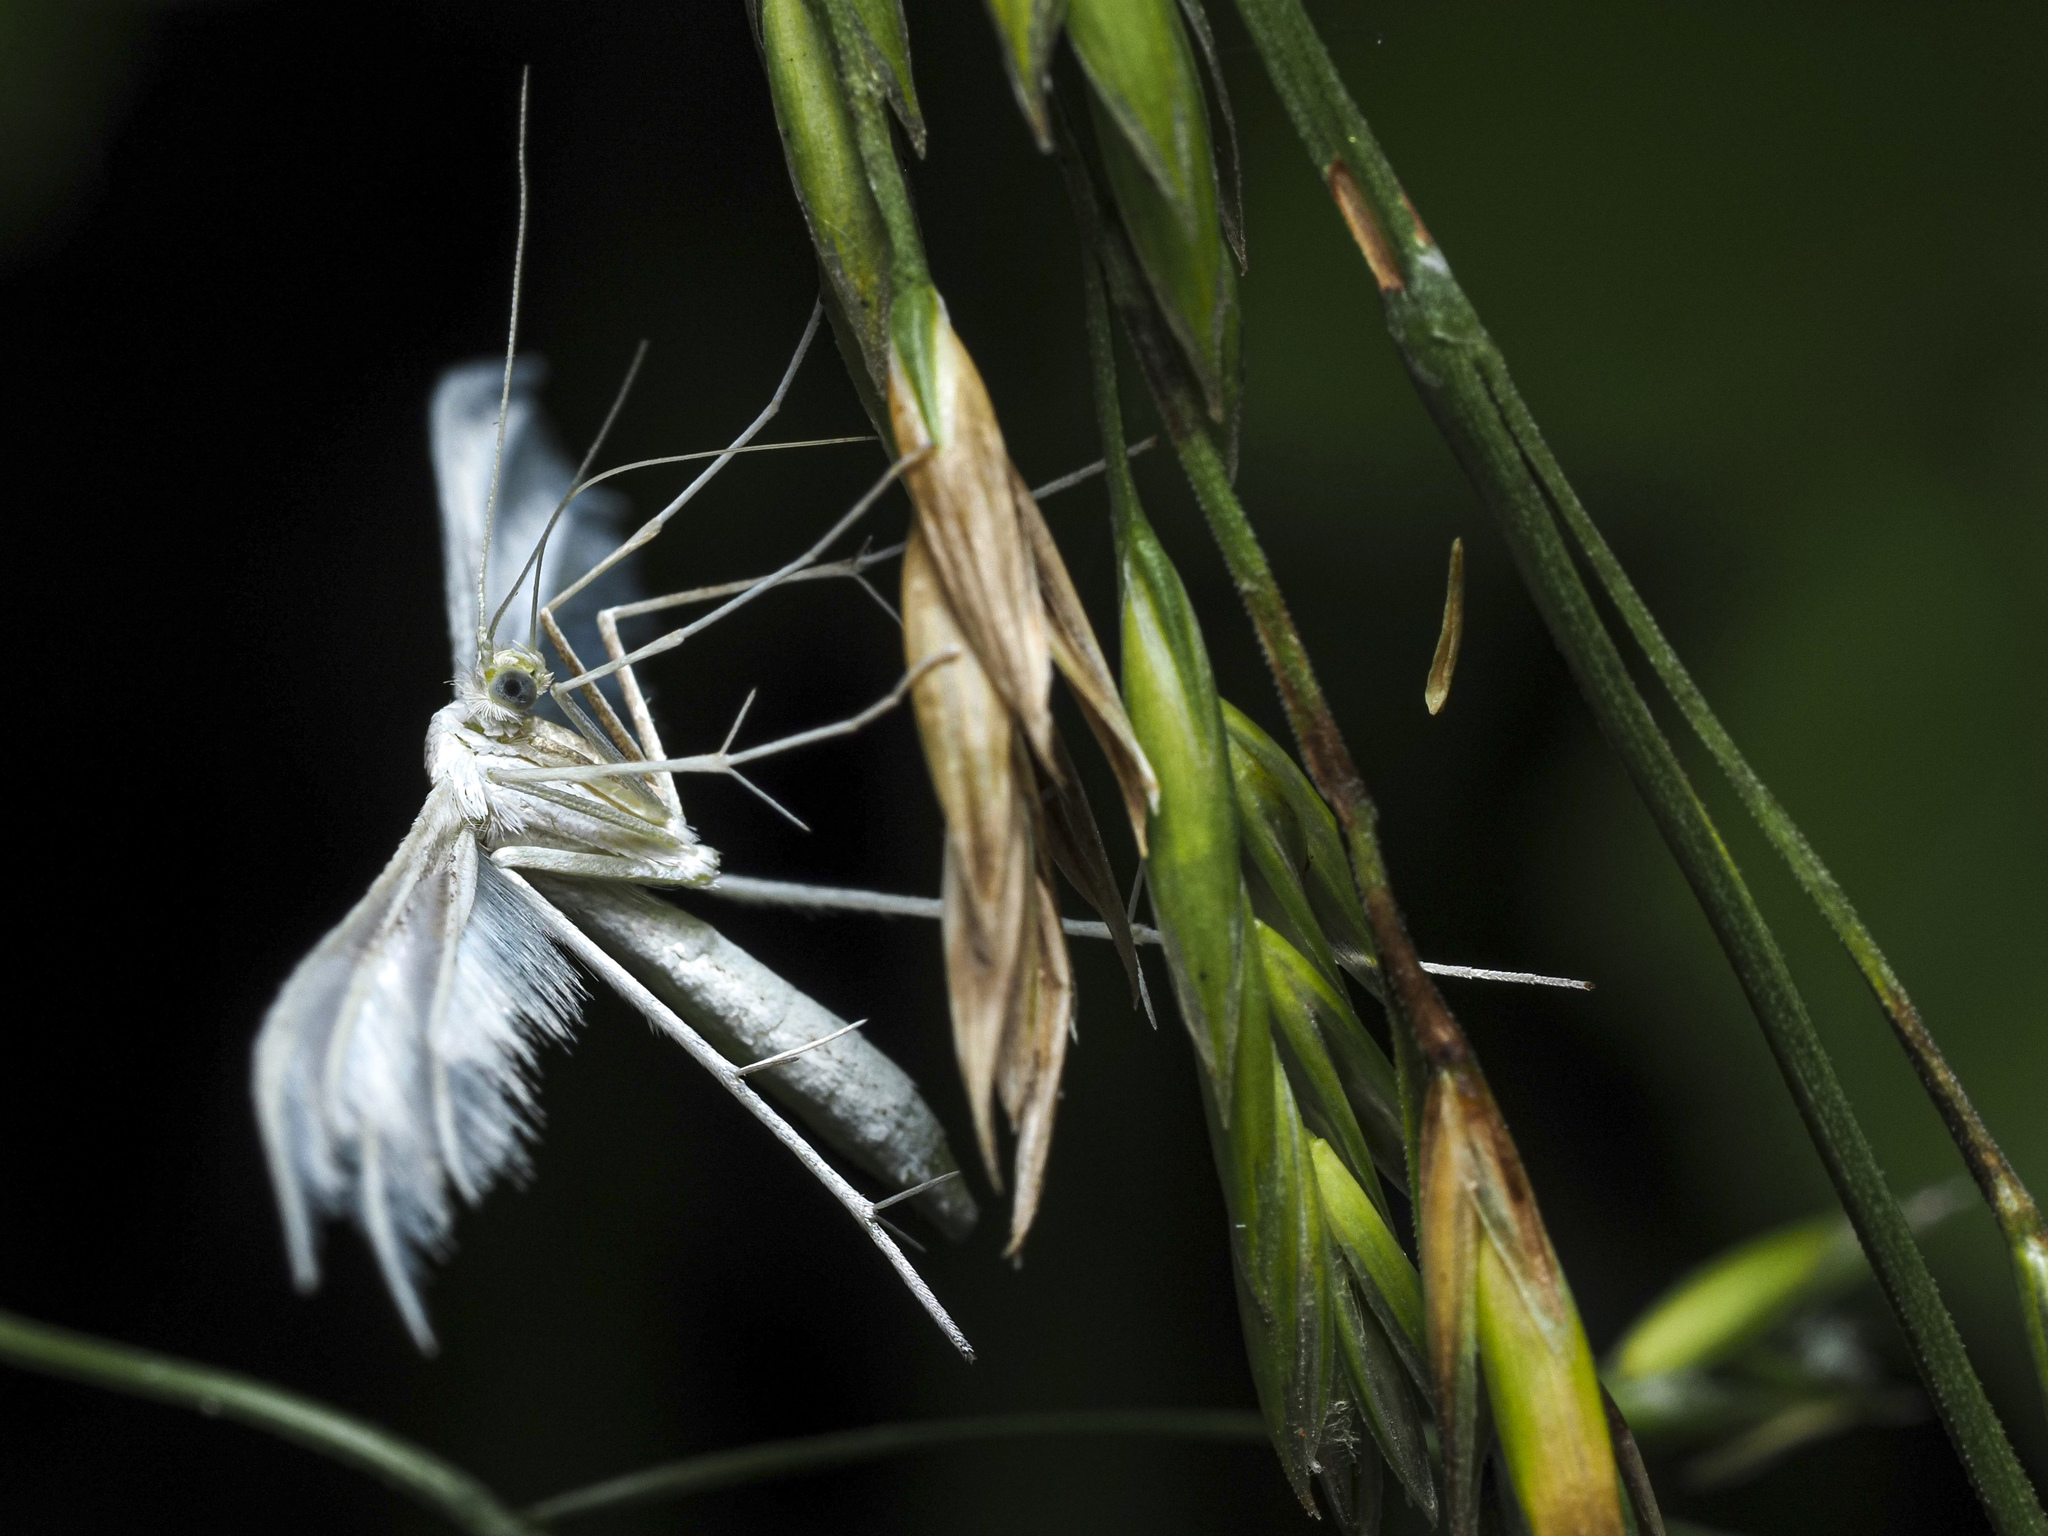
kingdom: Animalia
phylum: Arthropoda
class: Insecta
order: Lepidoptera
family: Pterophoridae
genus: Pterophorus
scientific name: Pterophorus pentadactyla
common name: White plume moth
